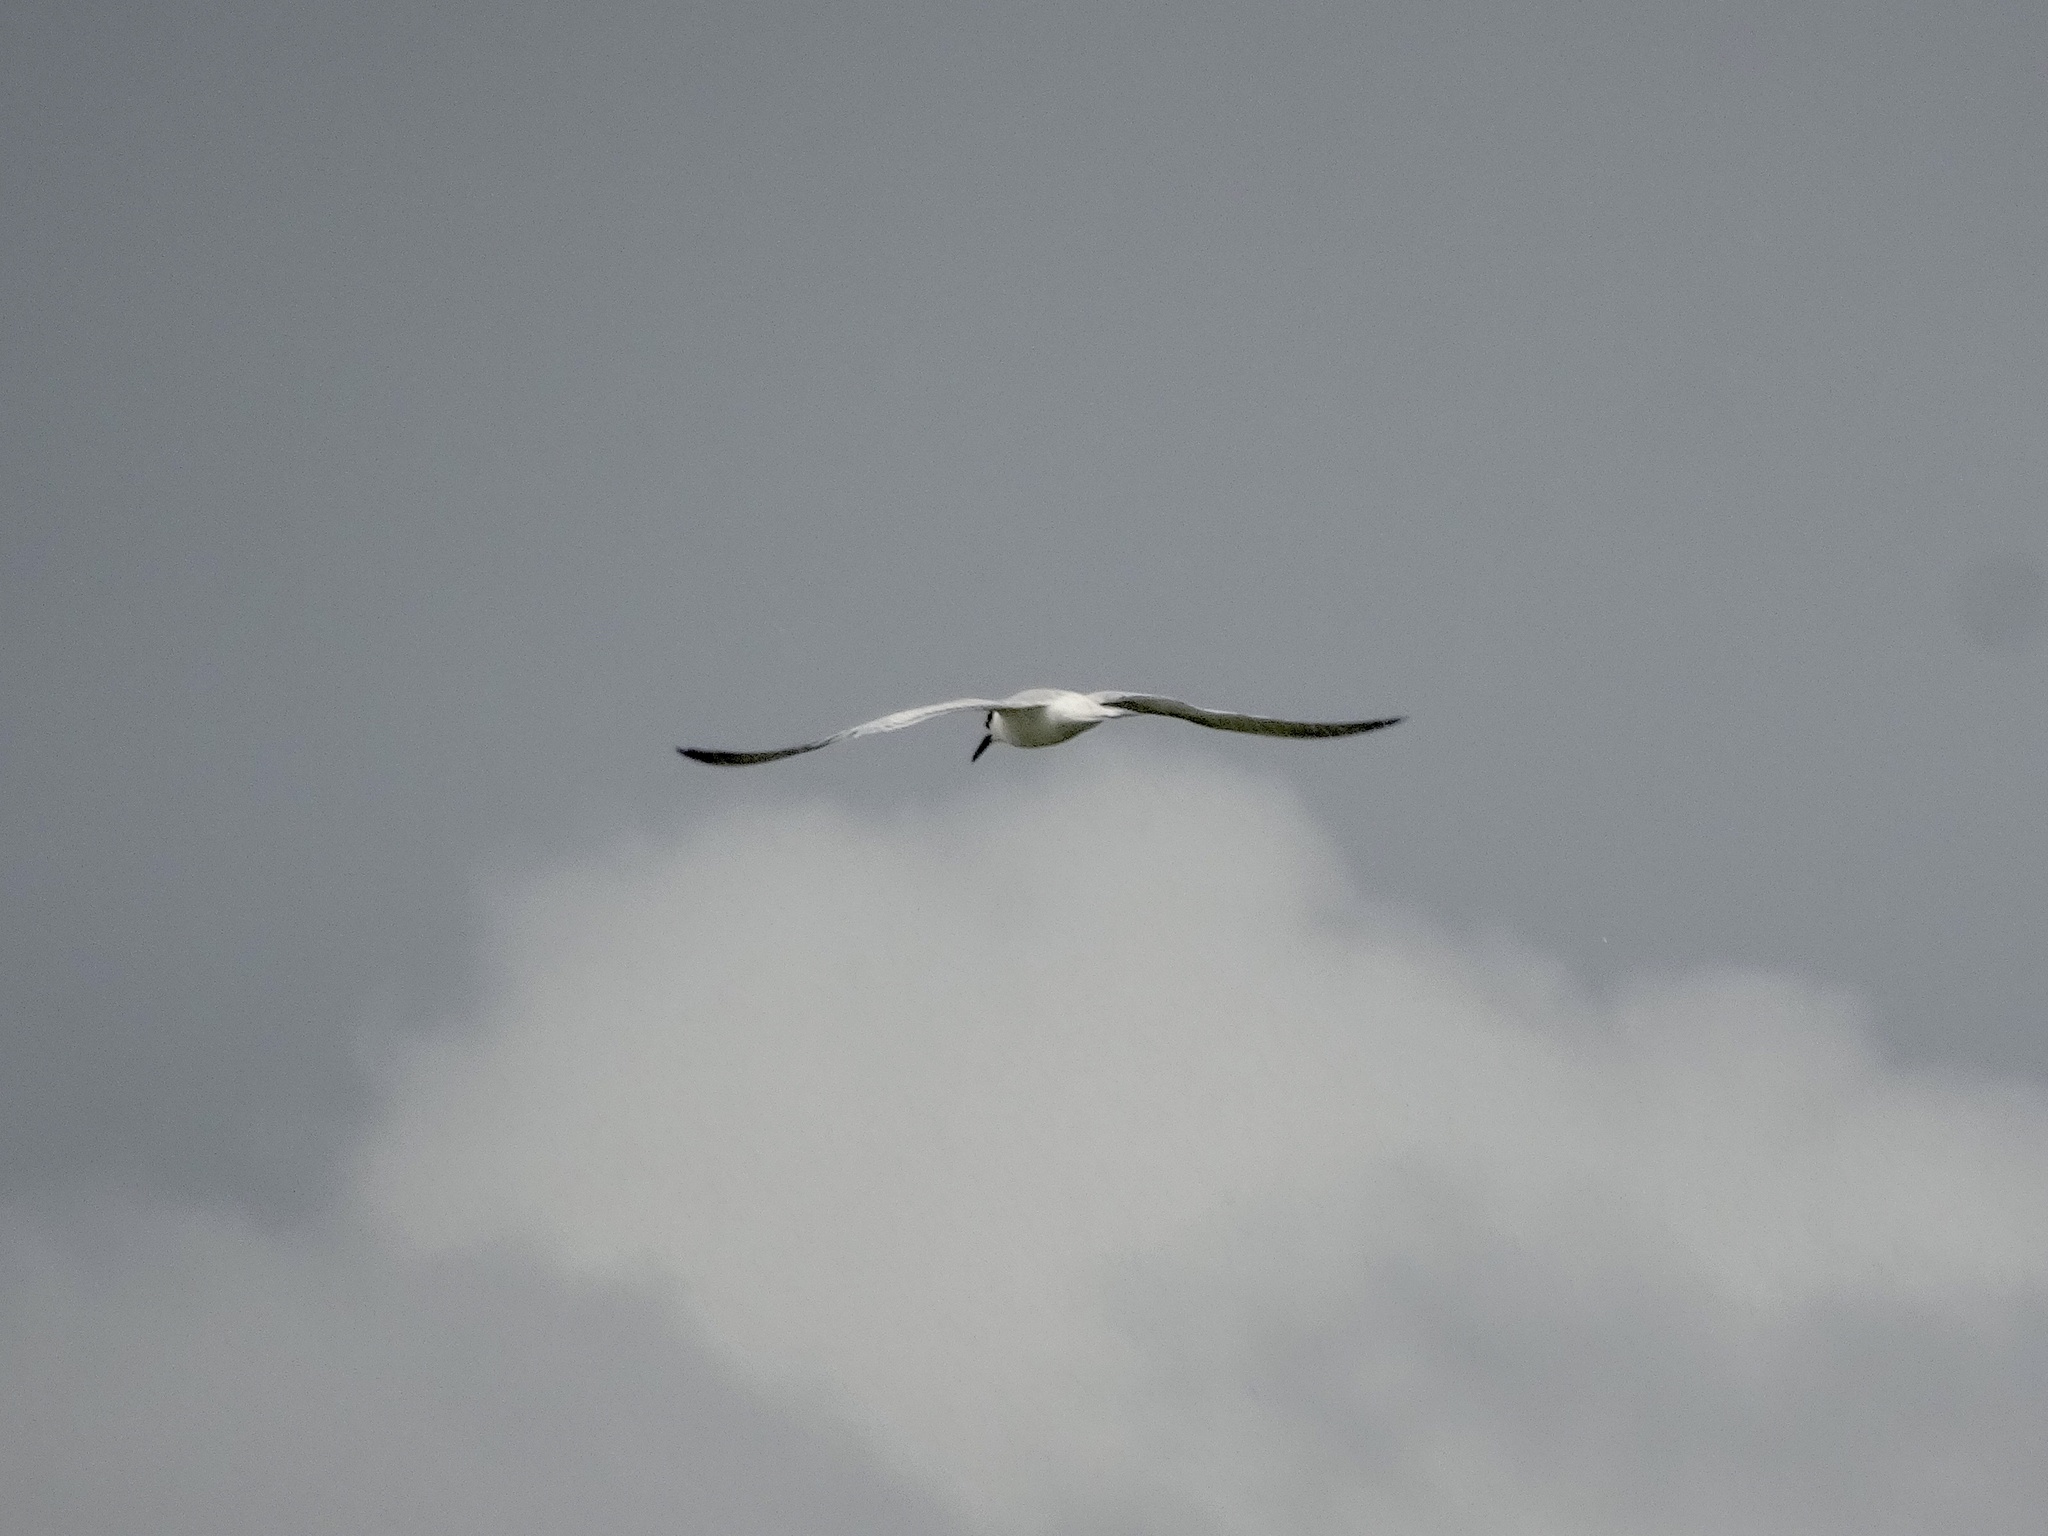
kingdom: Animalia
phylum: Chordata
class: Aves
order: Charadriiformes
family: Laridae
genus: Thalasseus
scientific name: Thalasseus sandvicensis
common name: Sandwich tern
